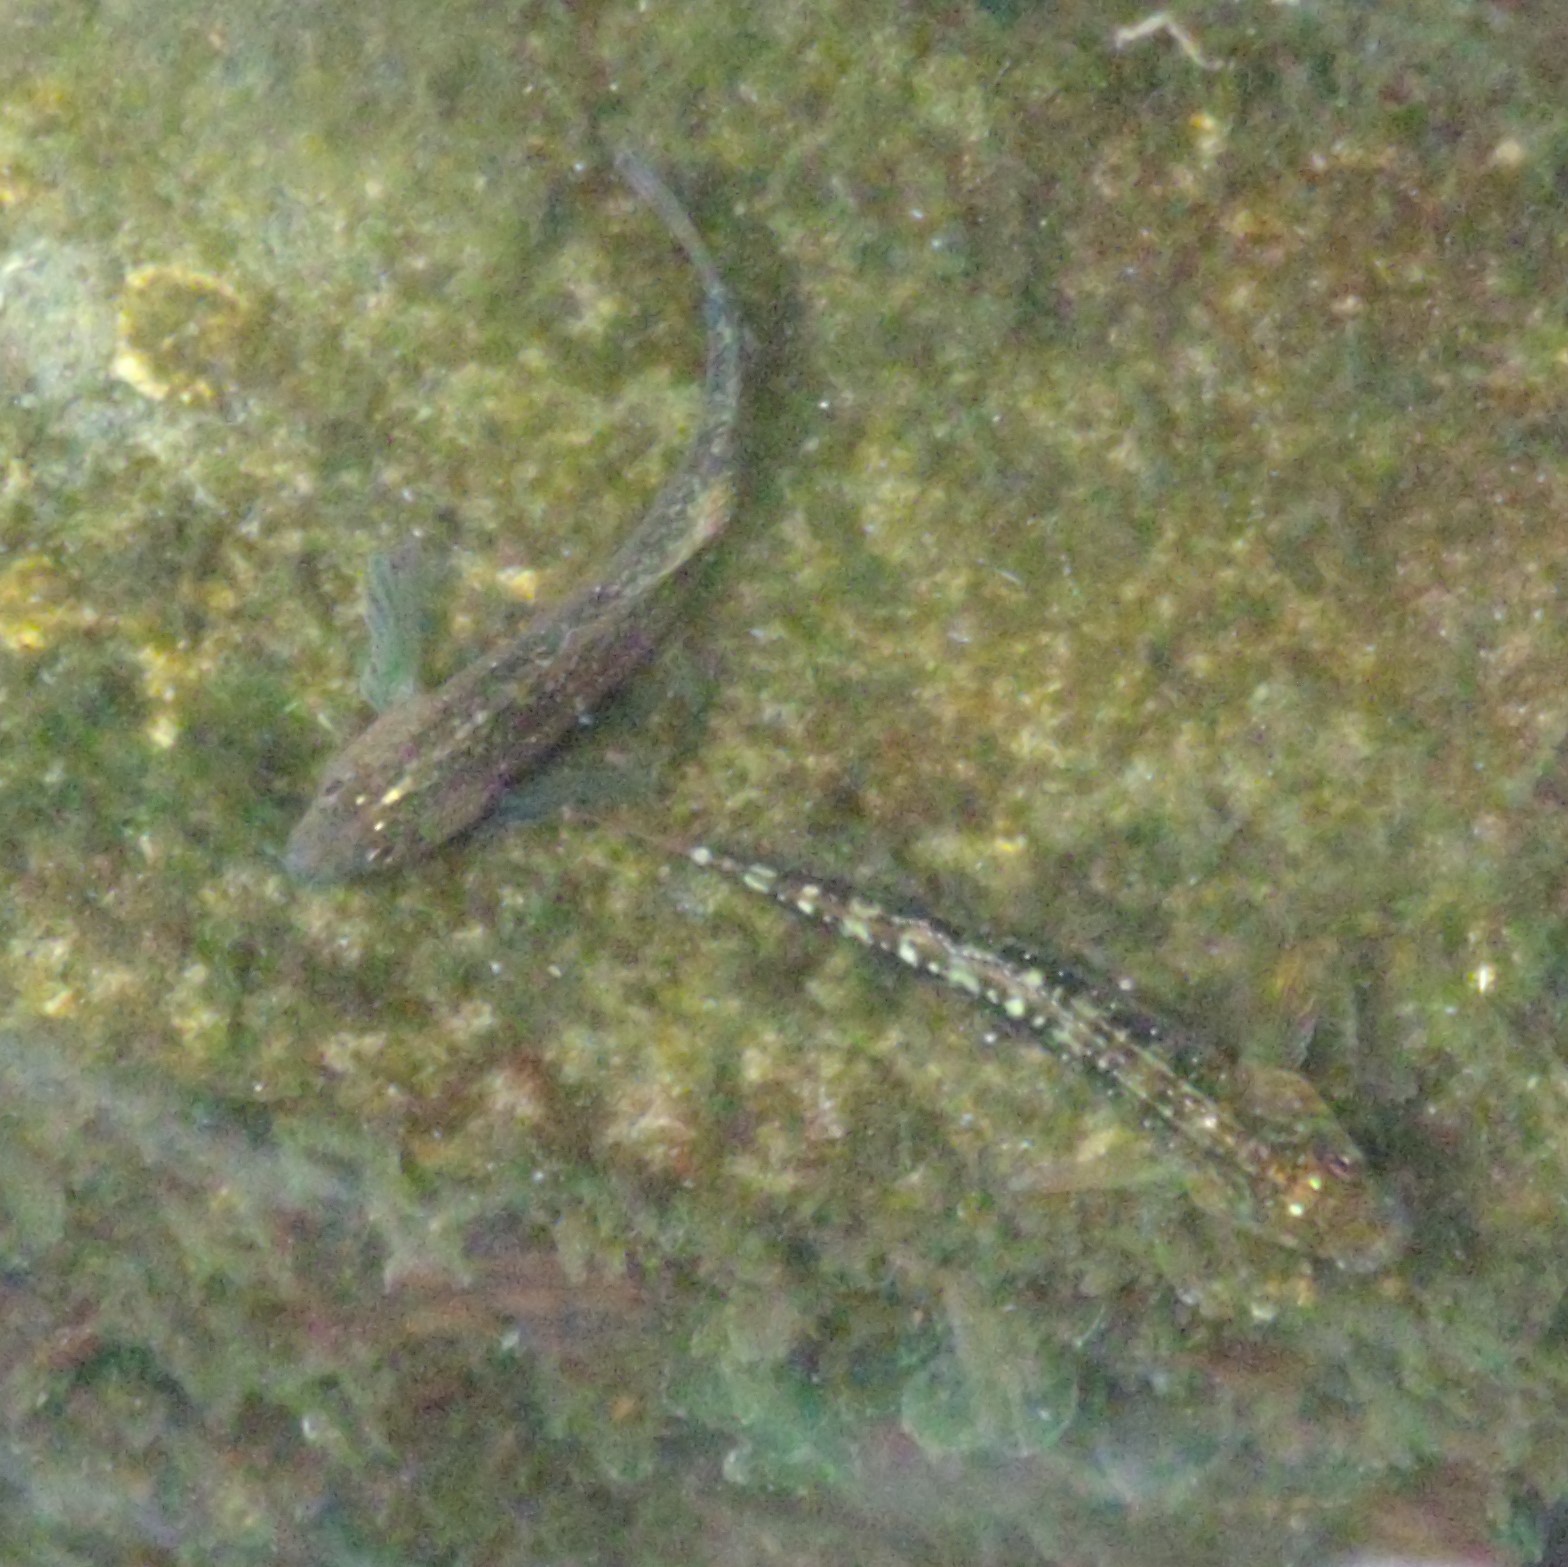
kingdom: Animalia
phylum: Chordata
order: Perciformes
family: Tripterygiidae
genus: Forsterygion
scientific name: Forsterygion varium
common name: Variable triplefin
